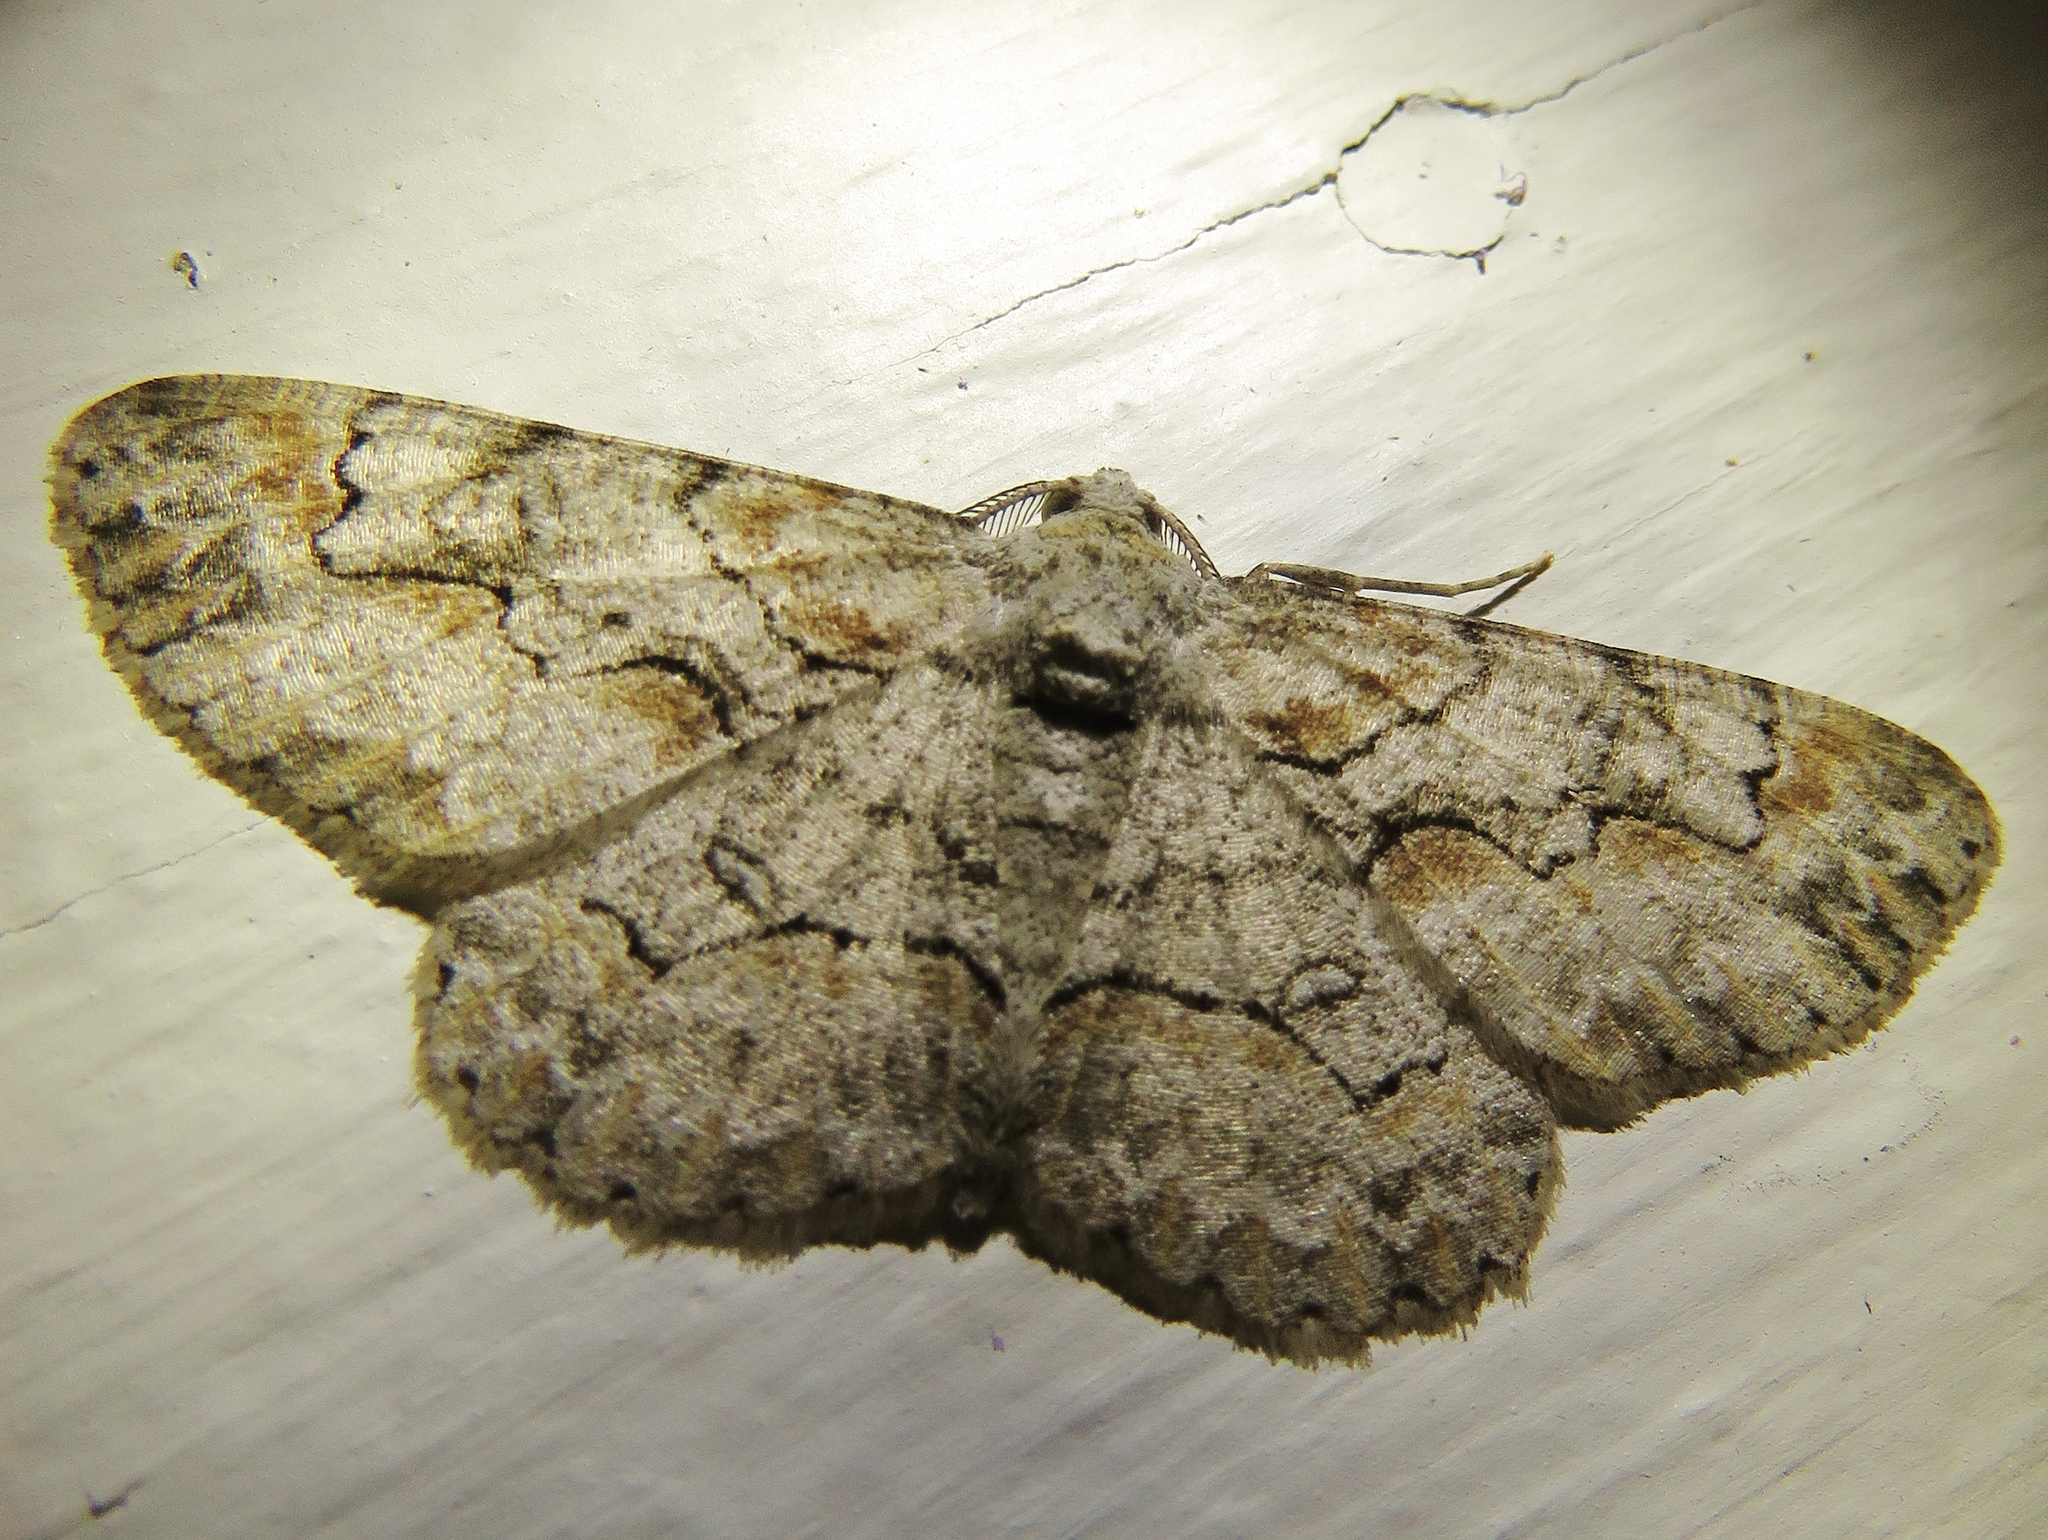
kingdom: Animalia
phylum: Arthropoda
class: Insecta
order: Lepidoptera
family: Geometridae
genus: Iridopsis
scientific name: Iridopsis defectaria
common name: Brown-shaded gray
